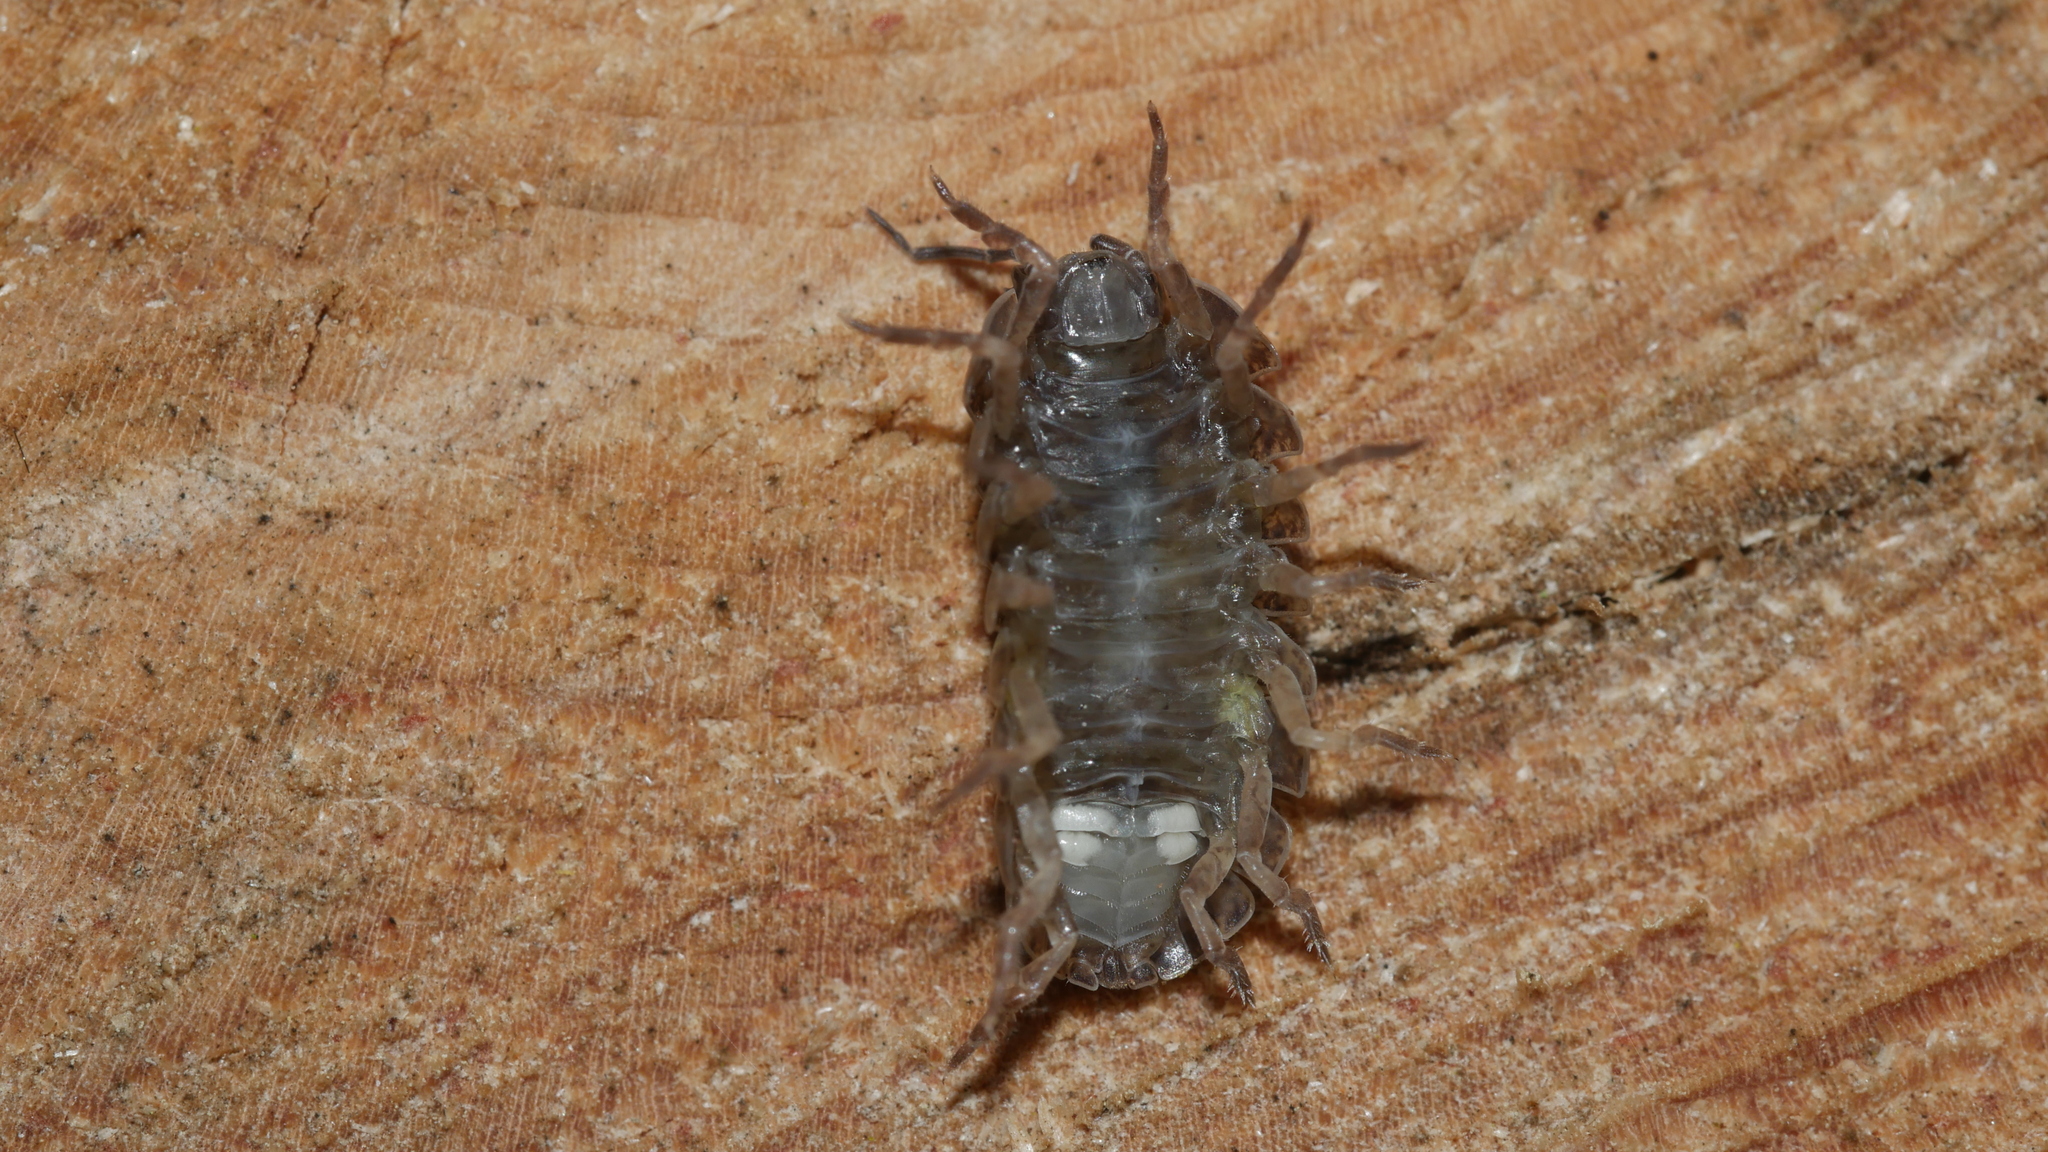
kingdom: Animalia
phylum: Arthropoda
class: Malacostraca
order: Isopoda
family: Porcellionidae
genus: Porcellio
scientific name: Porcellio scaber
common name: Common rough woodlouse
